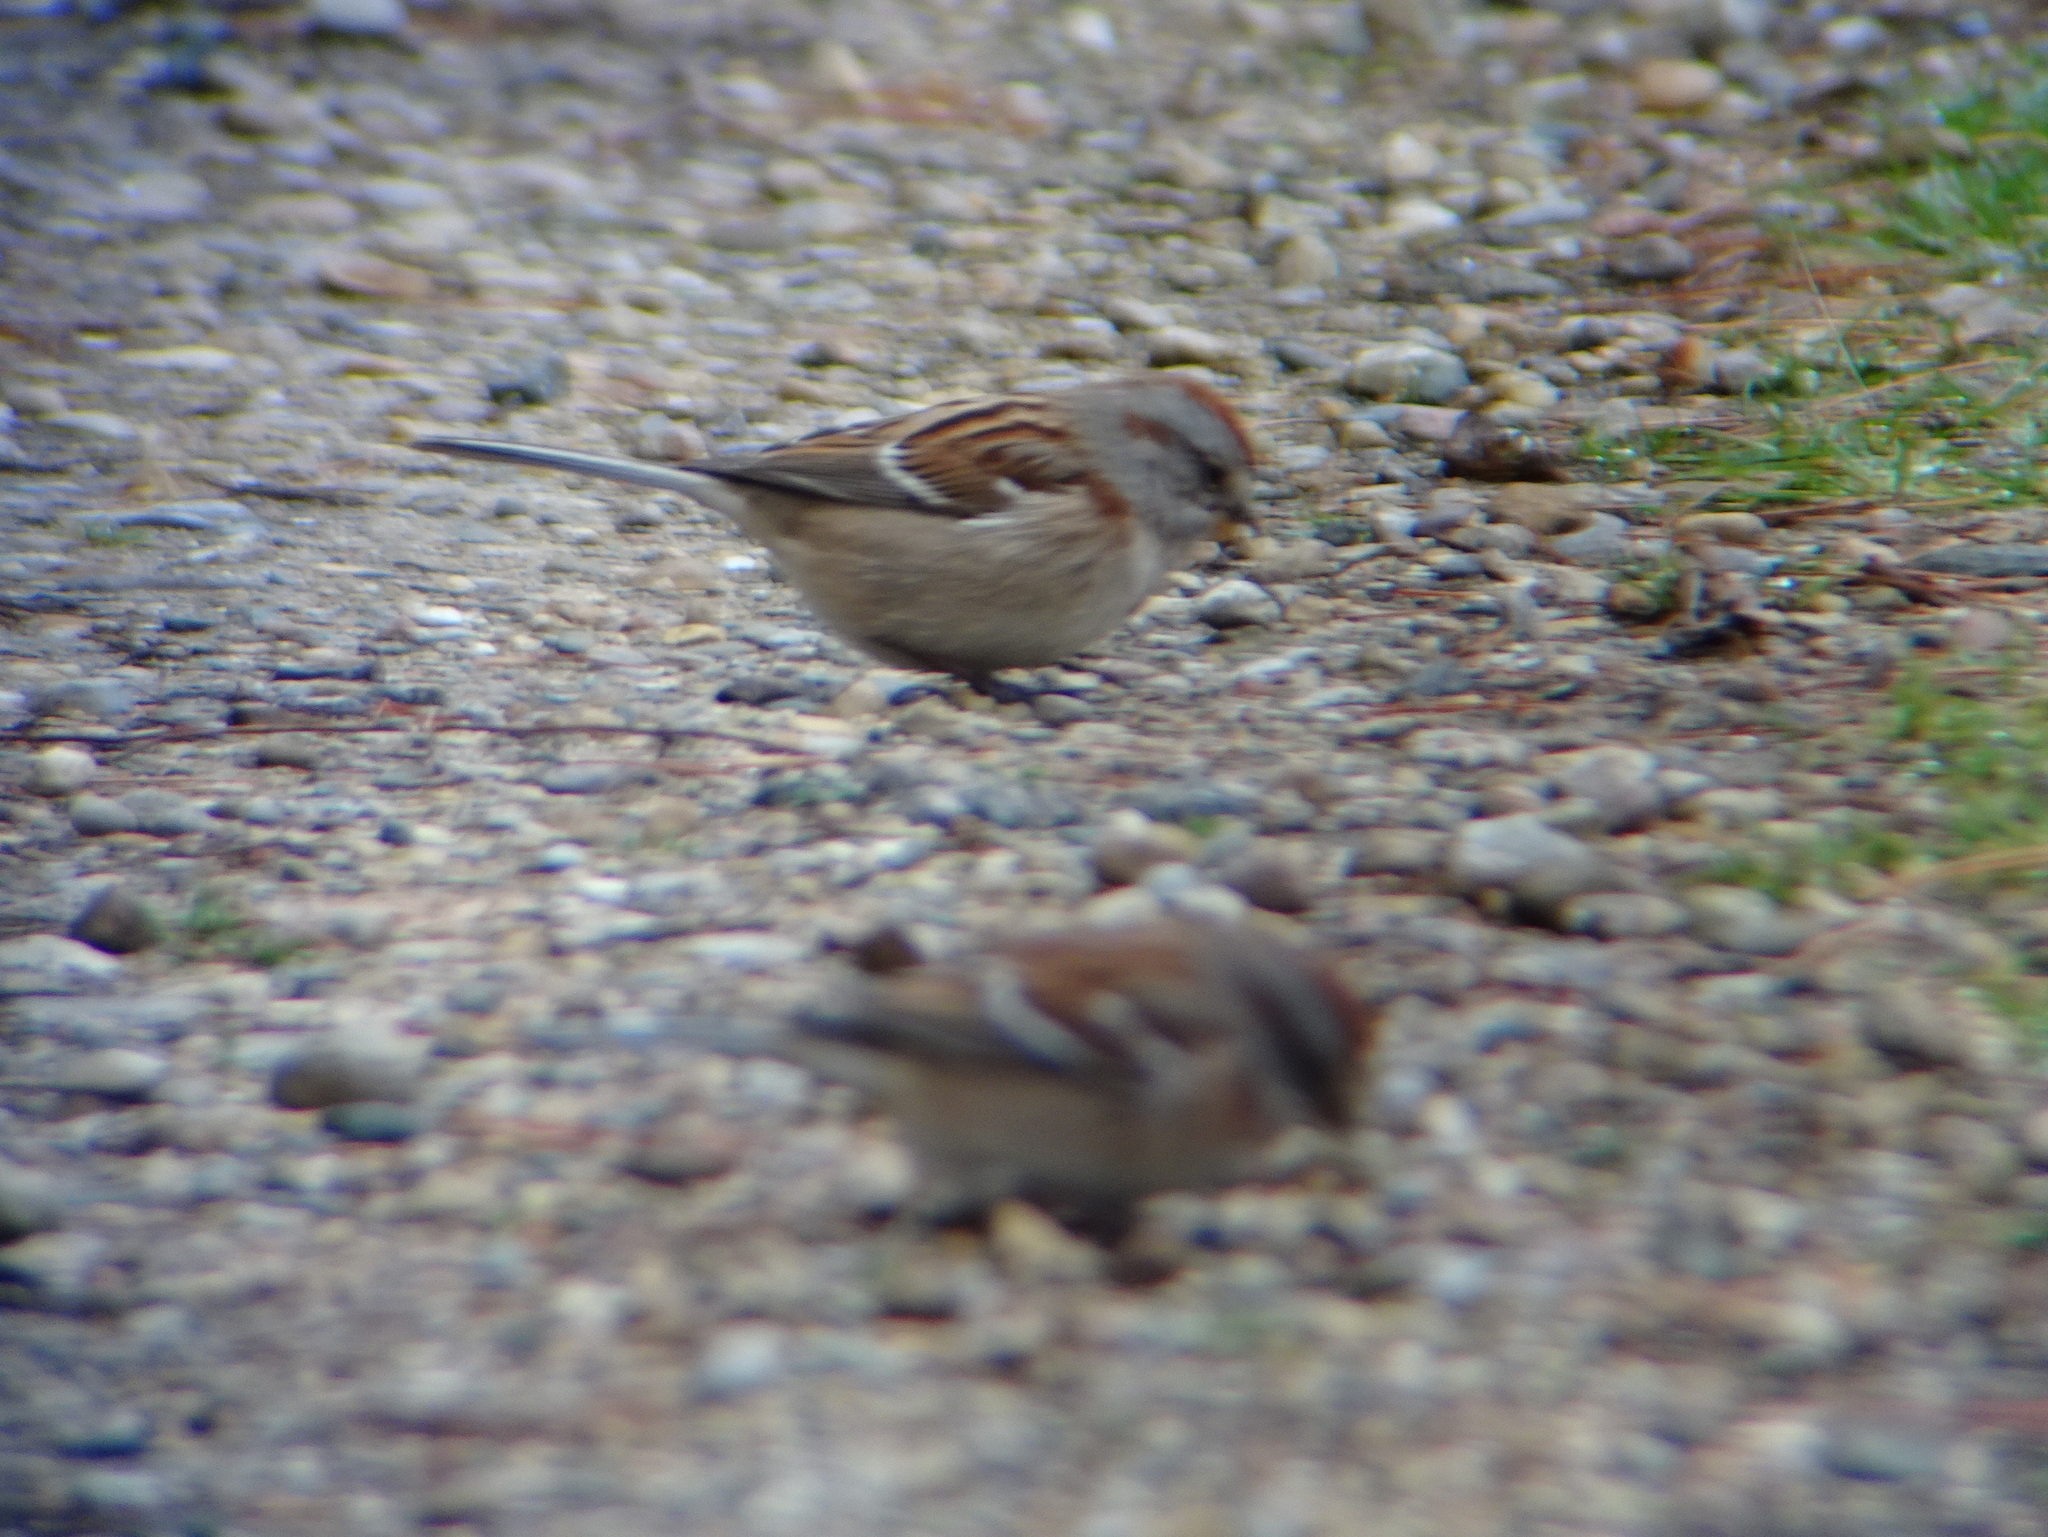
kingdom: Animalia
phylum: Chordata
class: Aves
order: Passeriformes
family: Passerellidae
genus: Spizelloides
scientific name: Spizelloides arborea
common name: American tree sparrow
